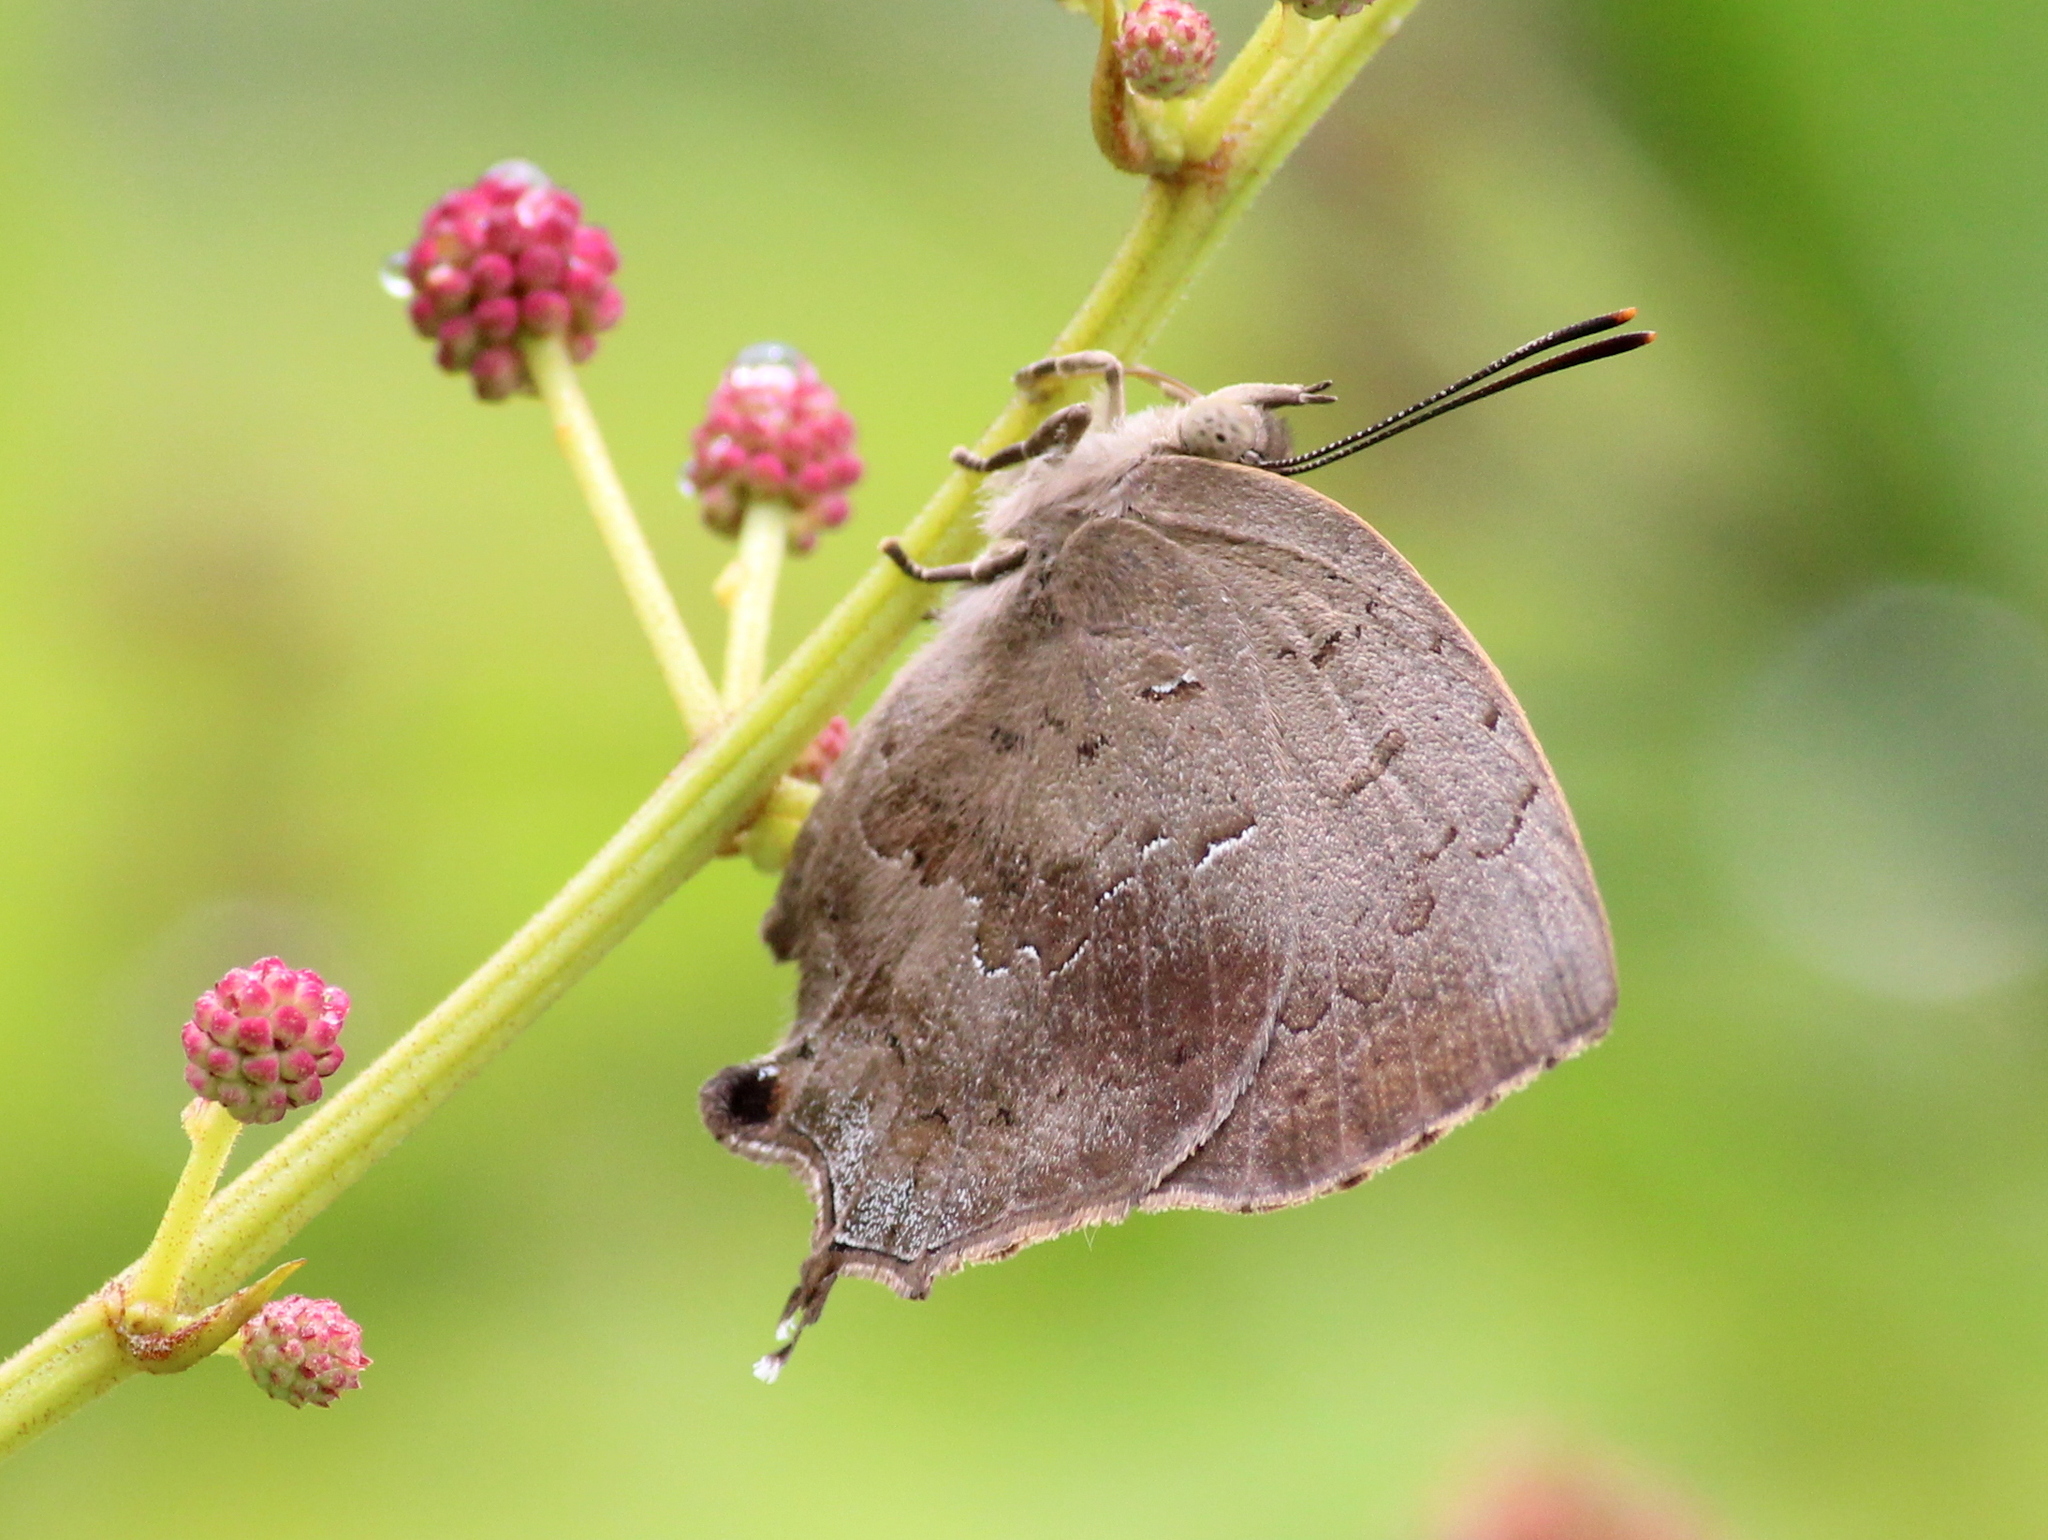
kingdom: Animalia
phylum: Arthropoda
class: Insecta
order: Lepidoptera
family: Lycaenidae
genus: Surendra
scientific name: Surendra quercetorum
